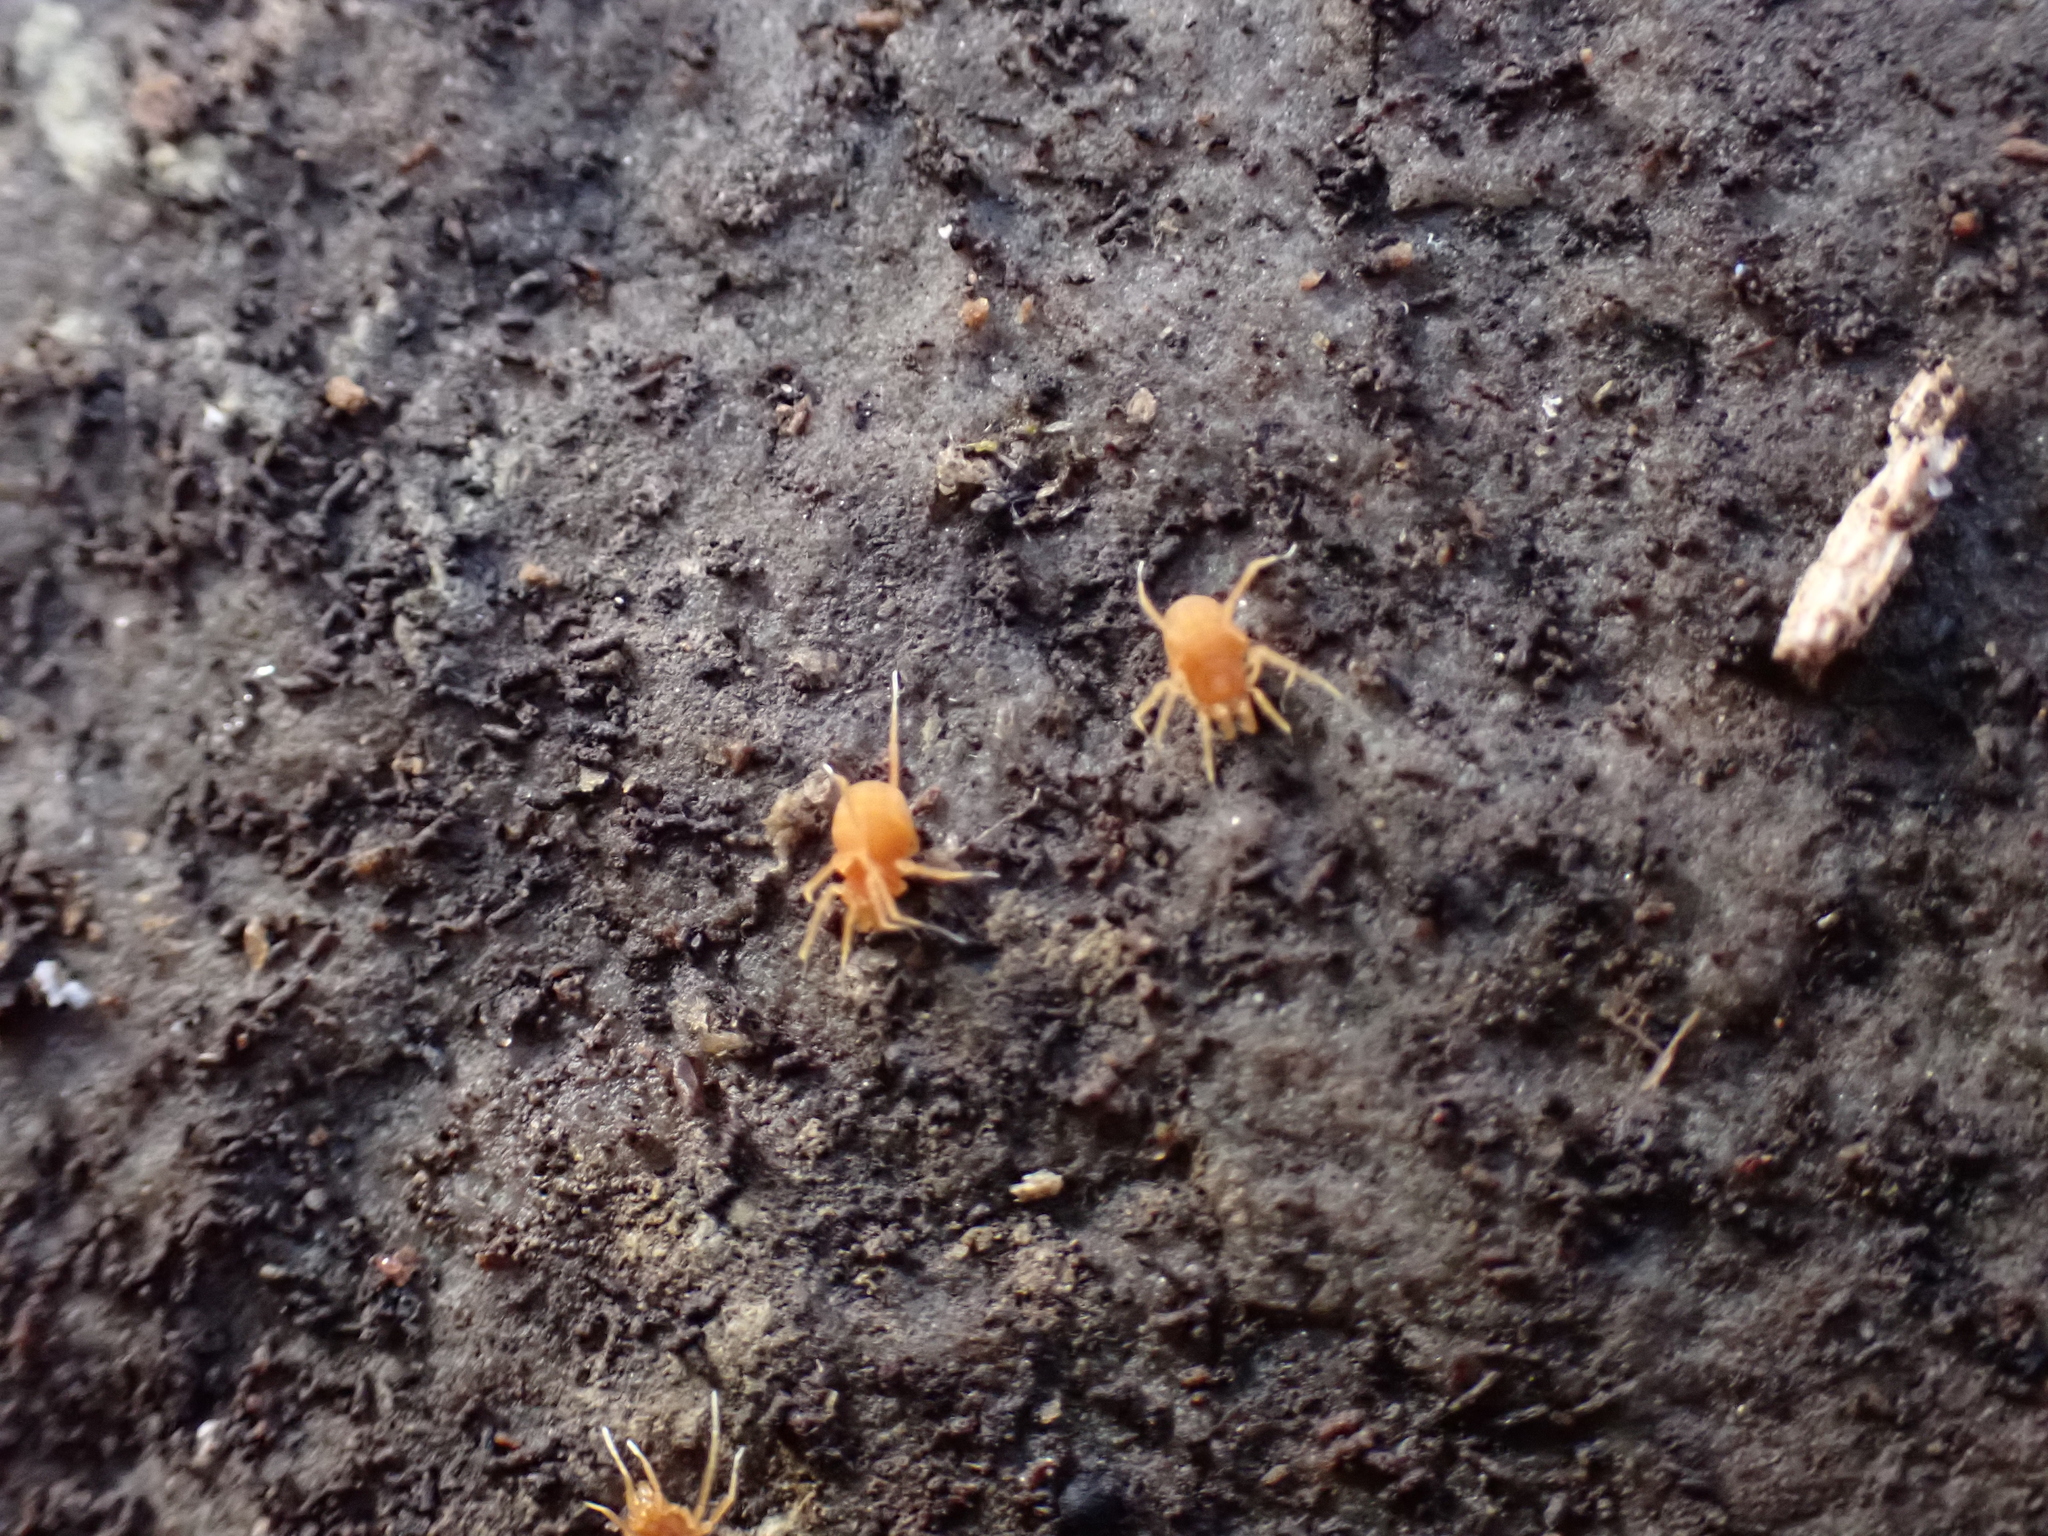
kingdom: Animalia
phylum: Arthropoda
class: Arachnida
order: Opiliones
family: Phalangodidae
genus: Scotolemon
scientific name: Scotolemon doriae
